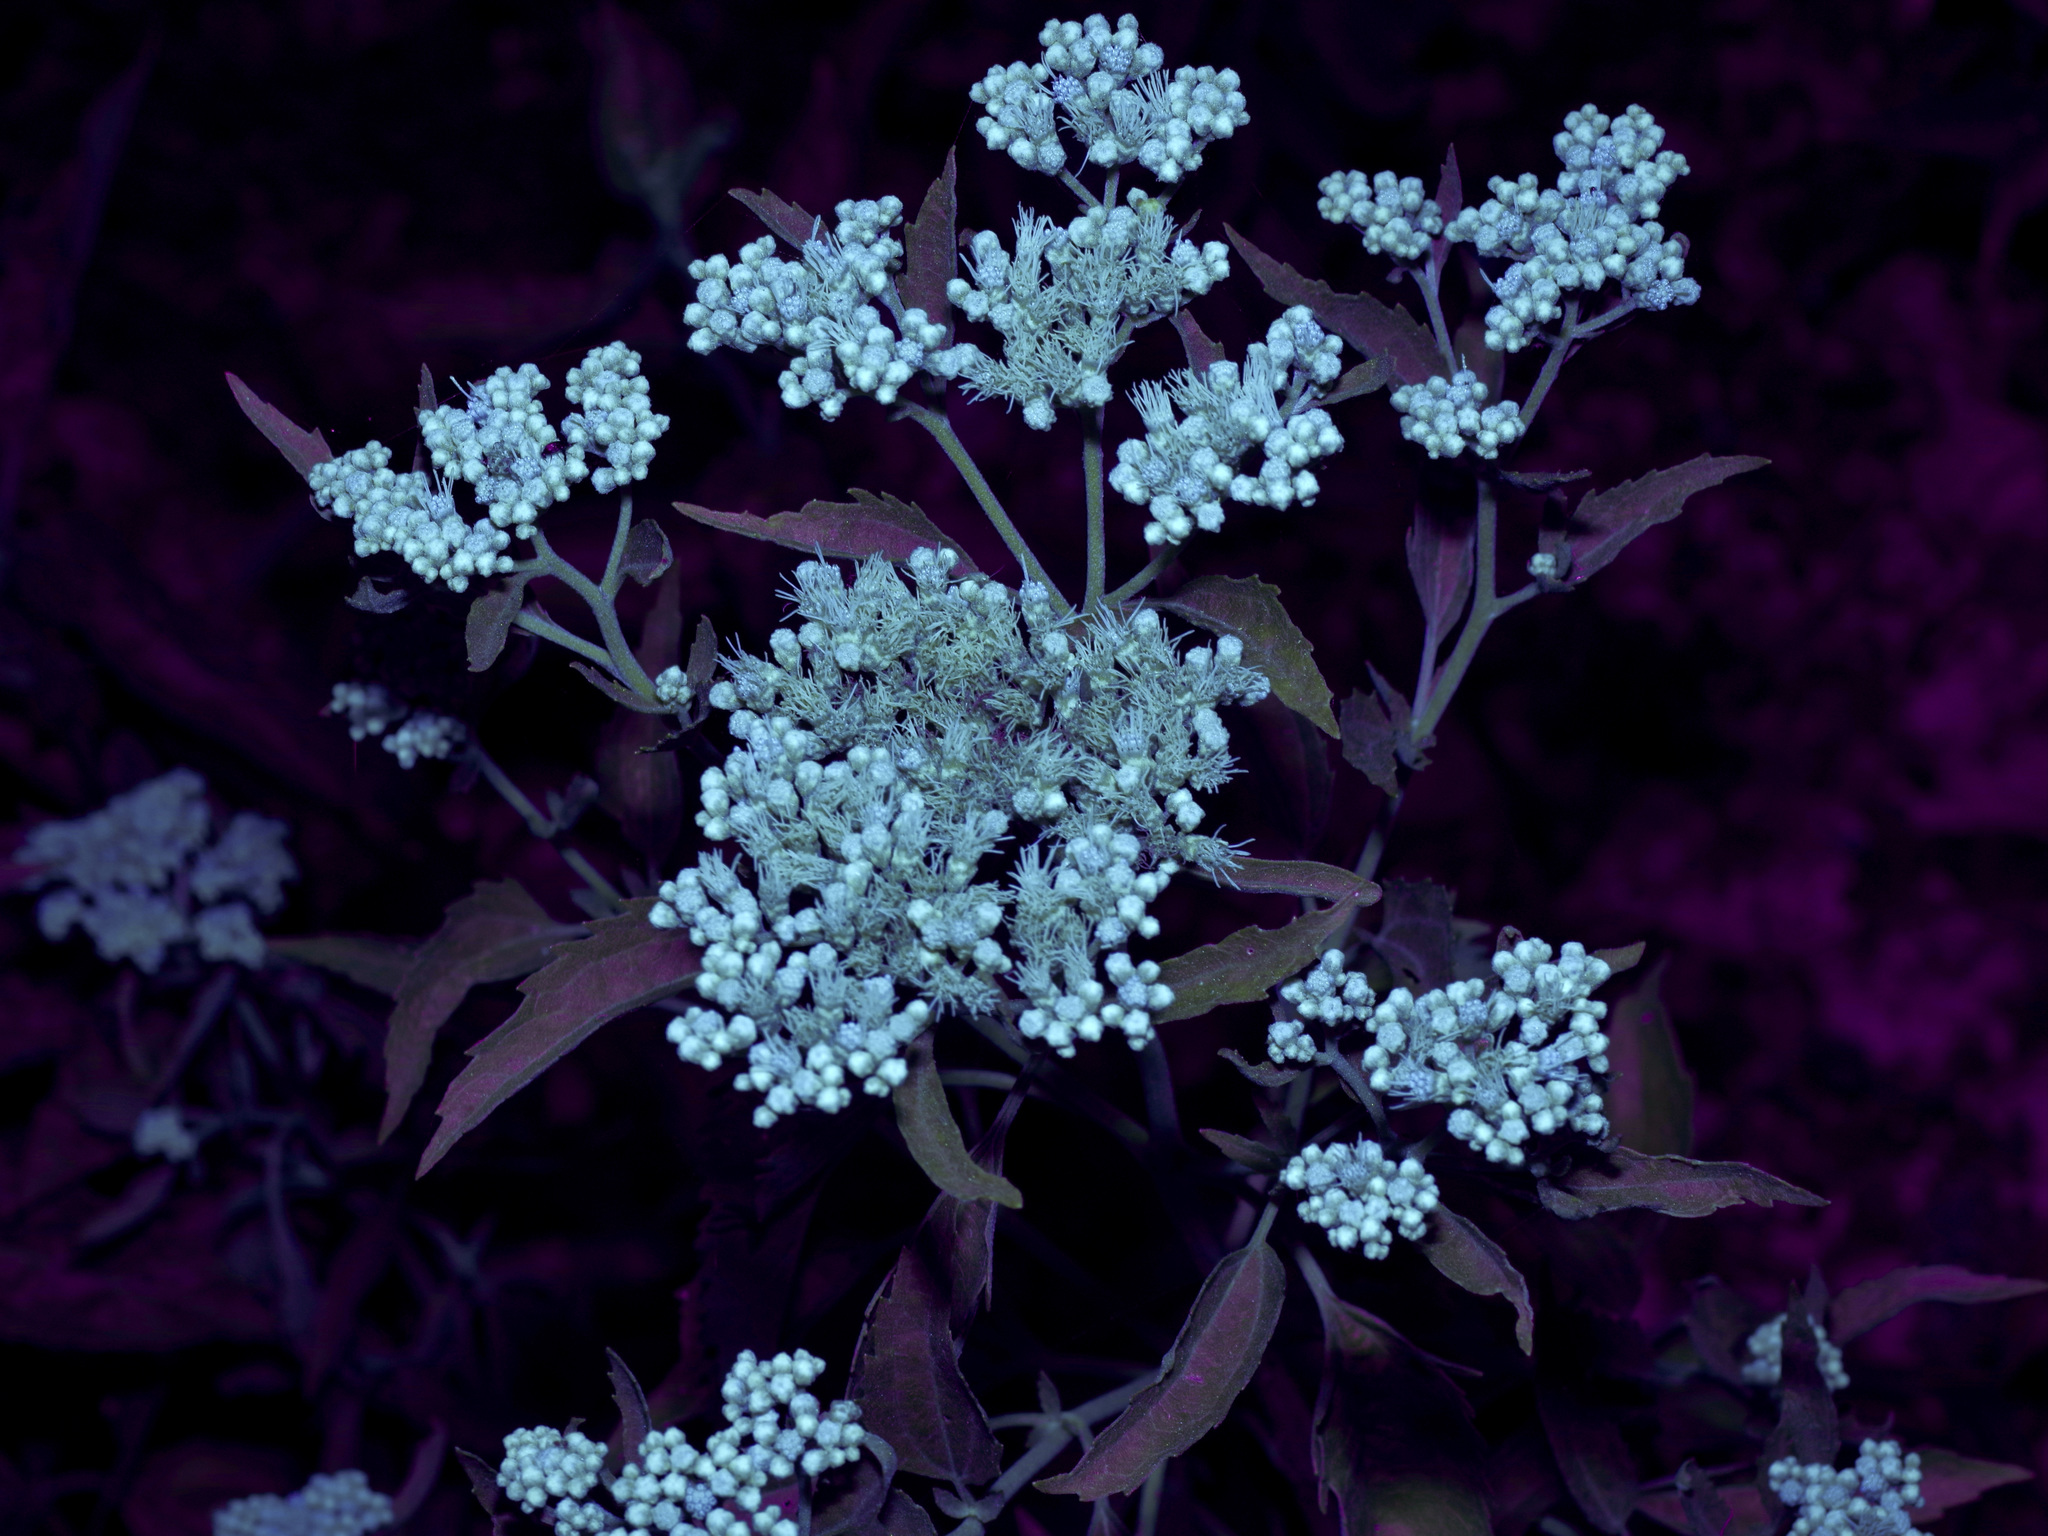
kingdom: Plantae
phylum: Tracheophyta
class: Magnoliopsida
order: Asterales
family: Asteraceae
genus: Eupatorium
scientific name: Eupatorium serotinum
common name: Late boneset
